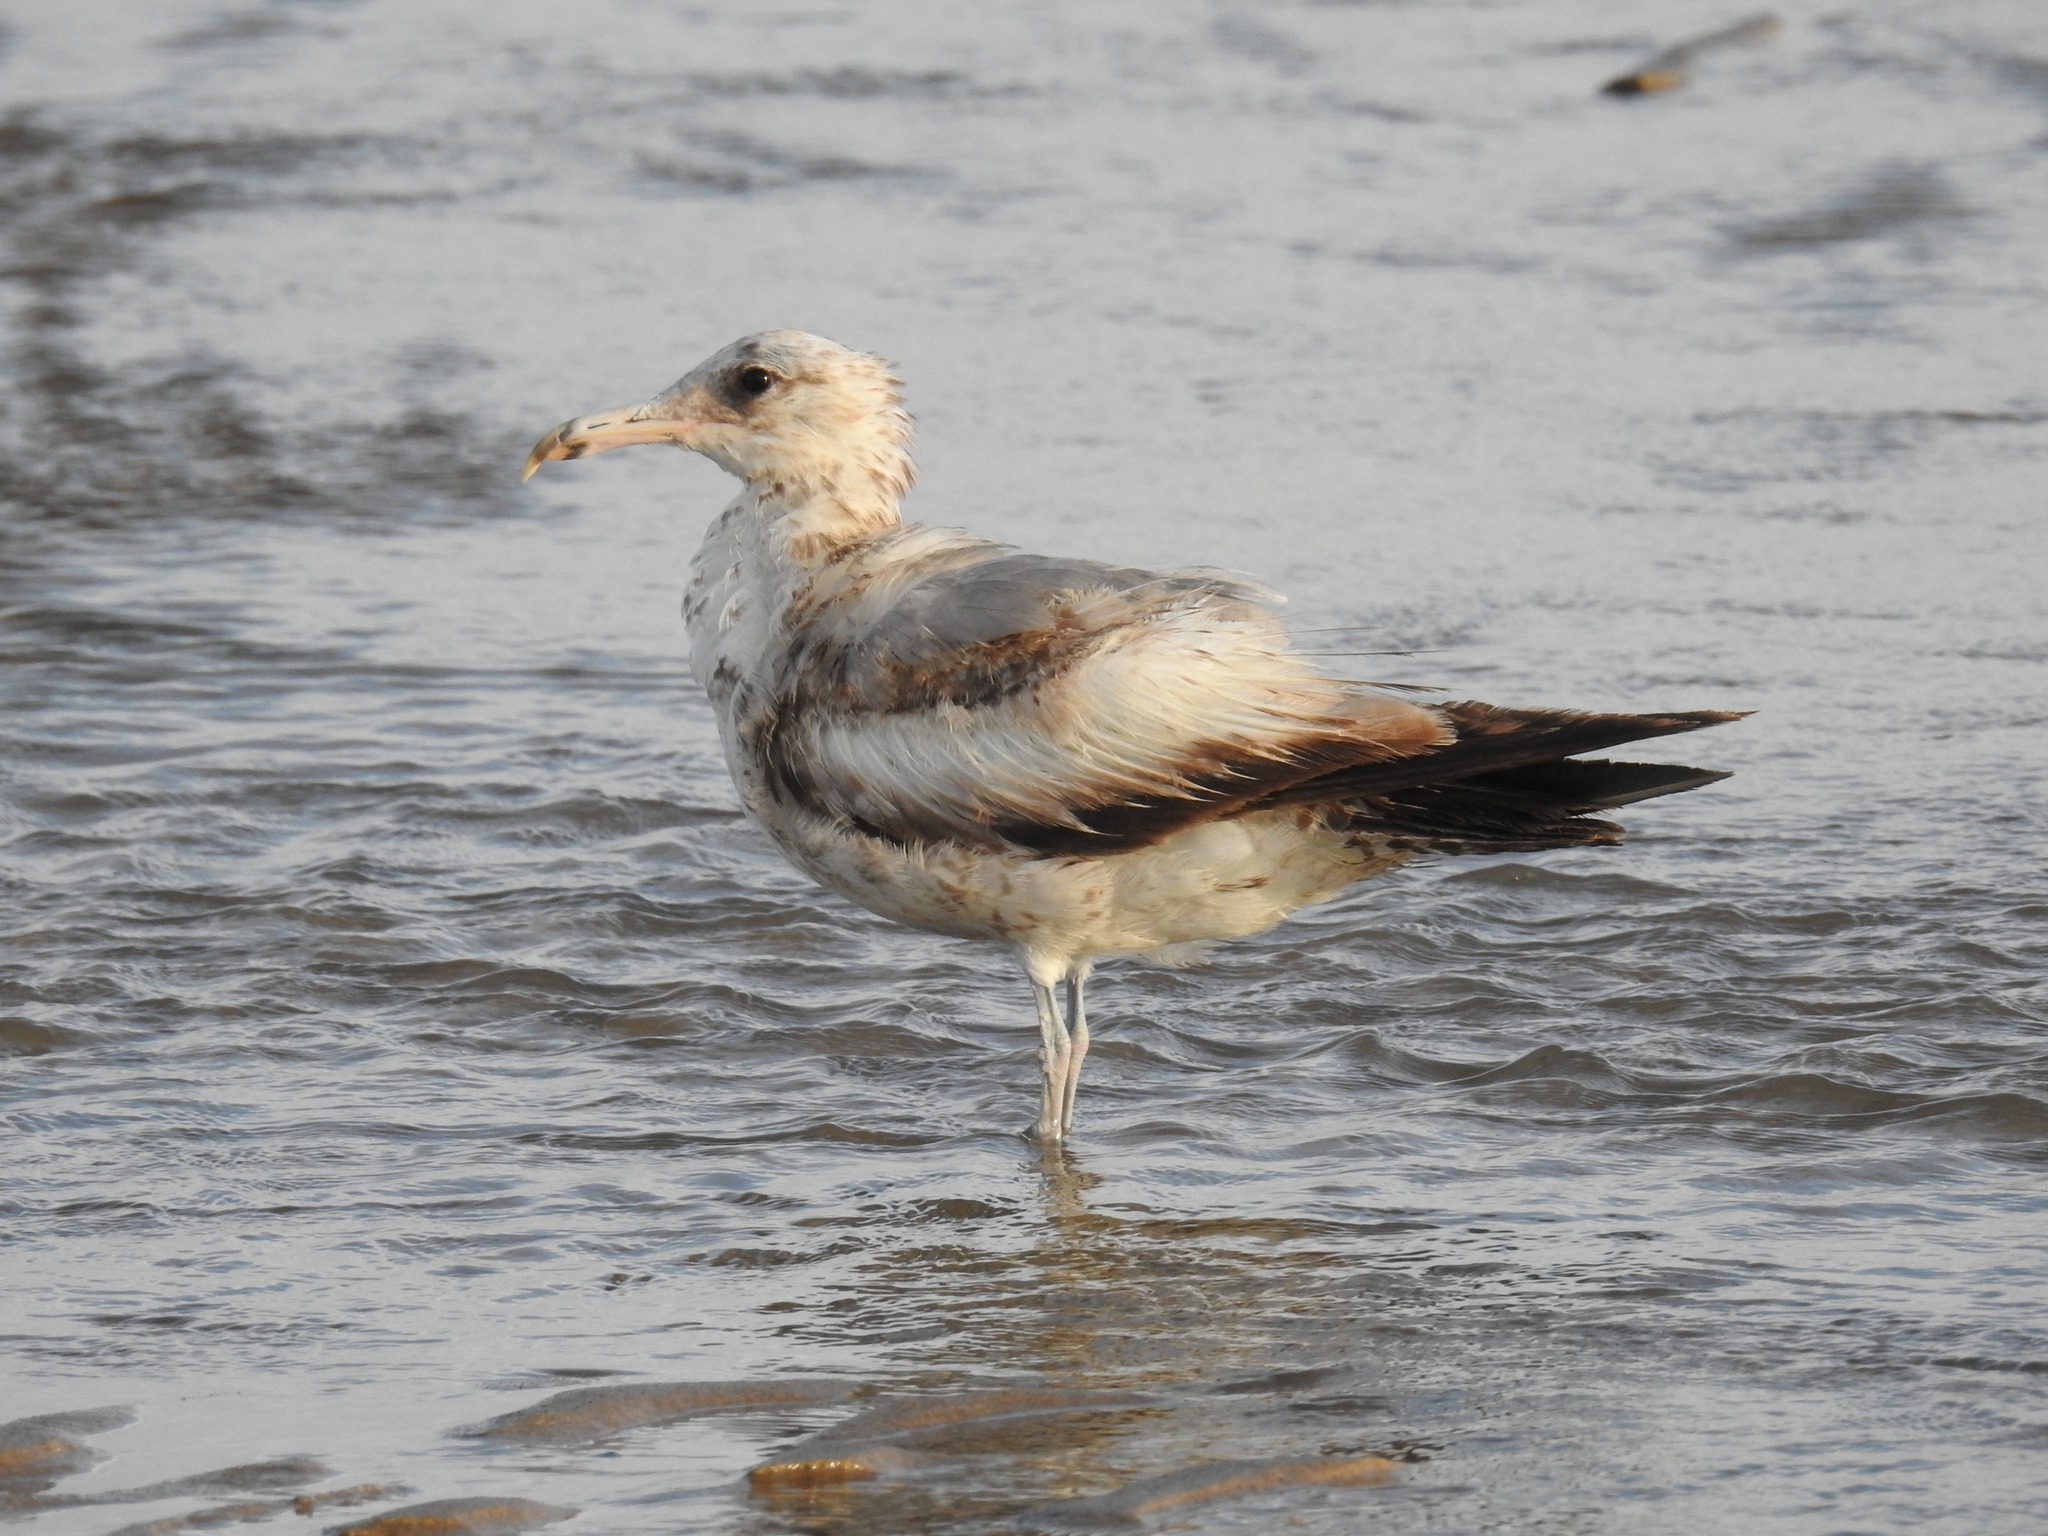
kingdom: Animalia
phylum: Chordata
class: Aves
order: Charadriiformes
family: Laridae
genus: Larus
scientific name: Larus californicus
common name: California gull
